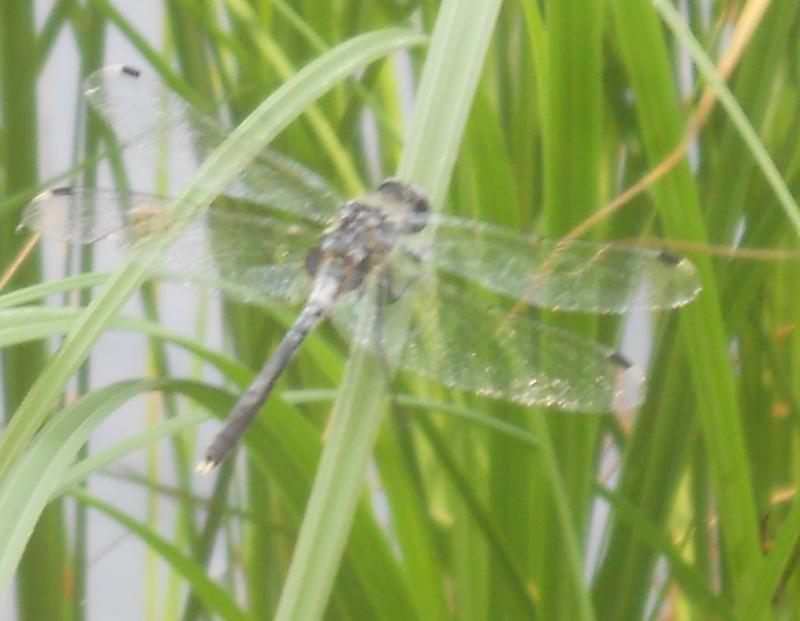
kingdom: Animalia
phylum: Arthropoda
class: Insecta
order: Odonata
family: Libellulidae
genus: Leucorrhinia
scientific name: Leucorrhinia albifrons
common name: Dark whiteface
